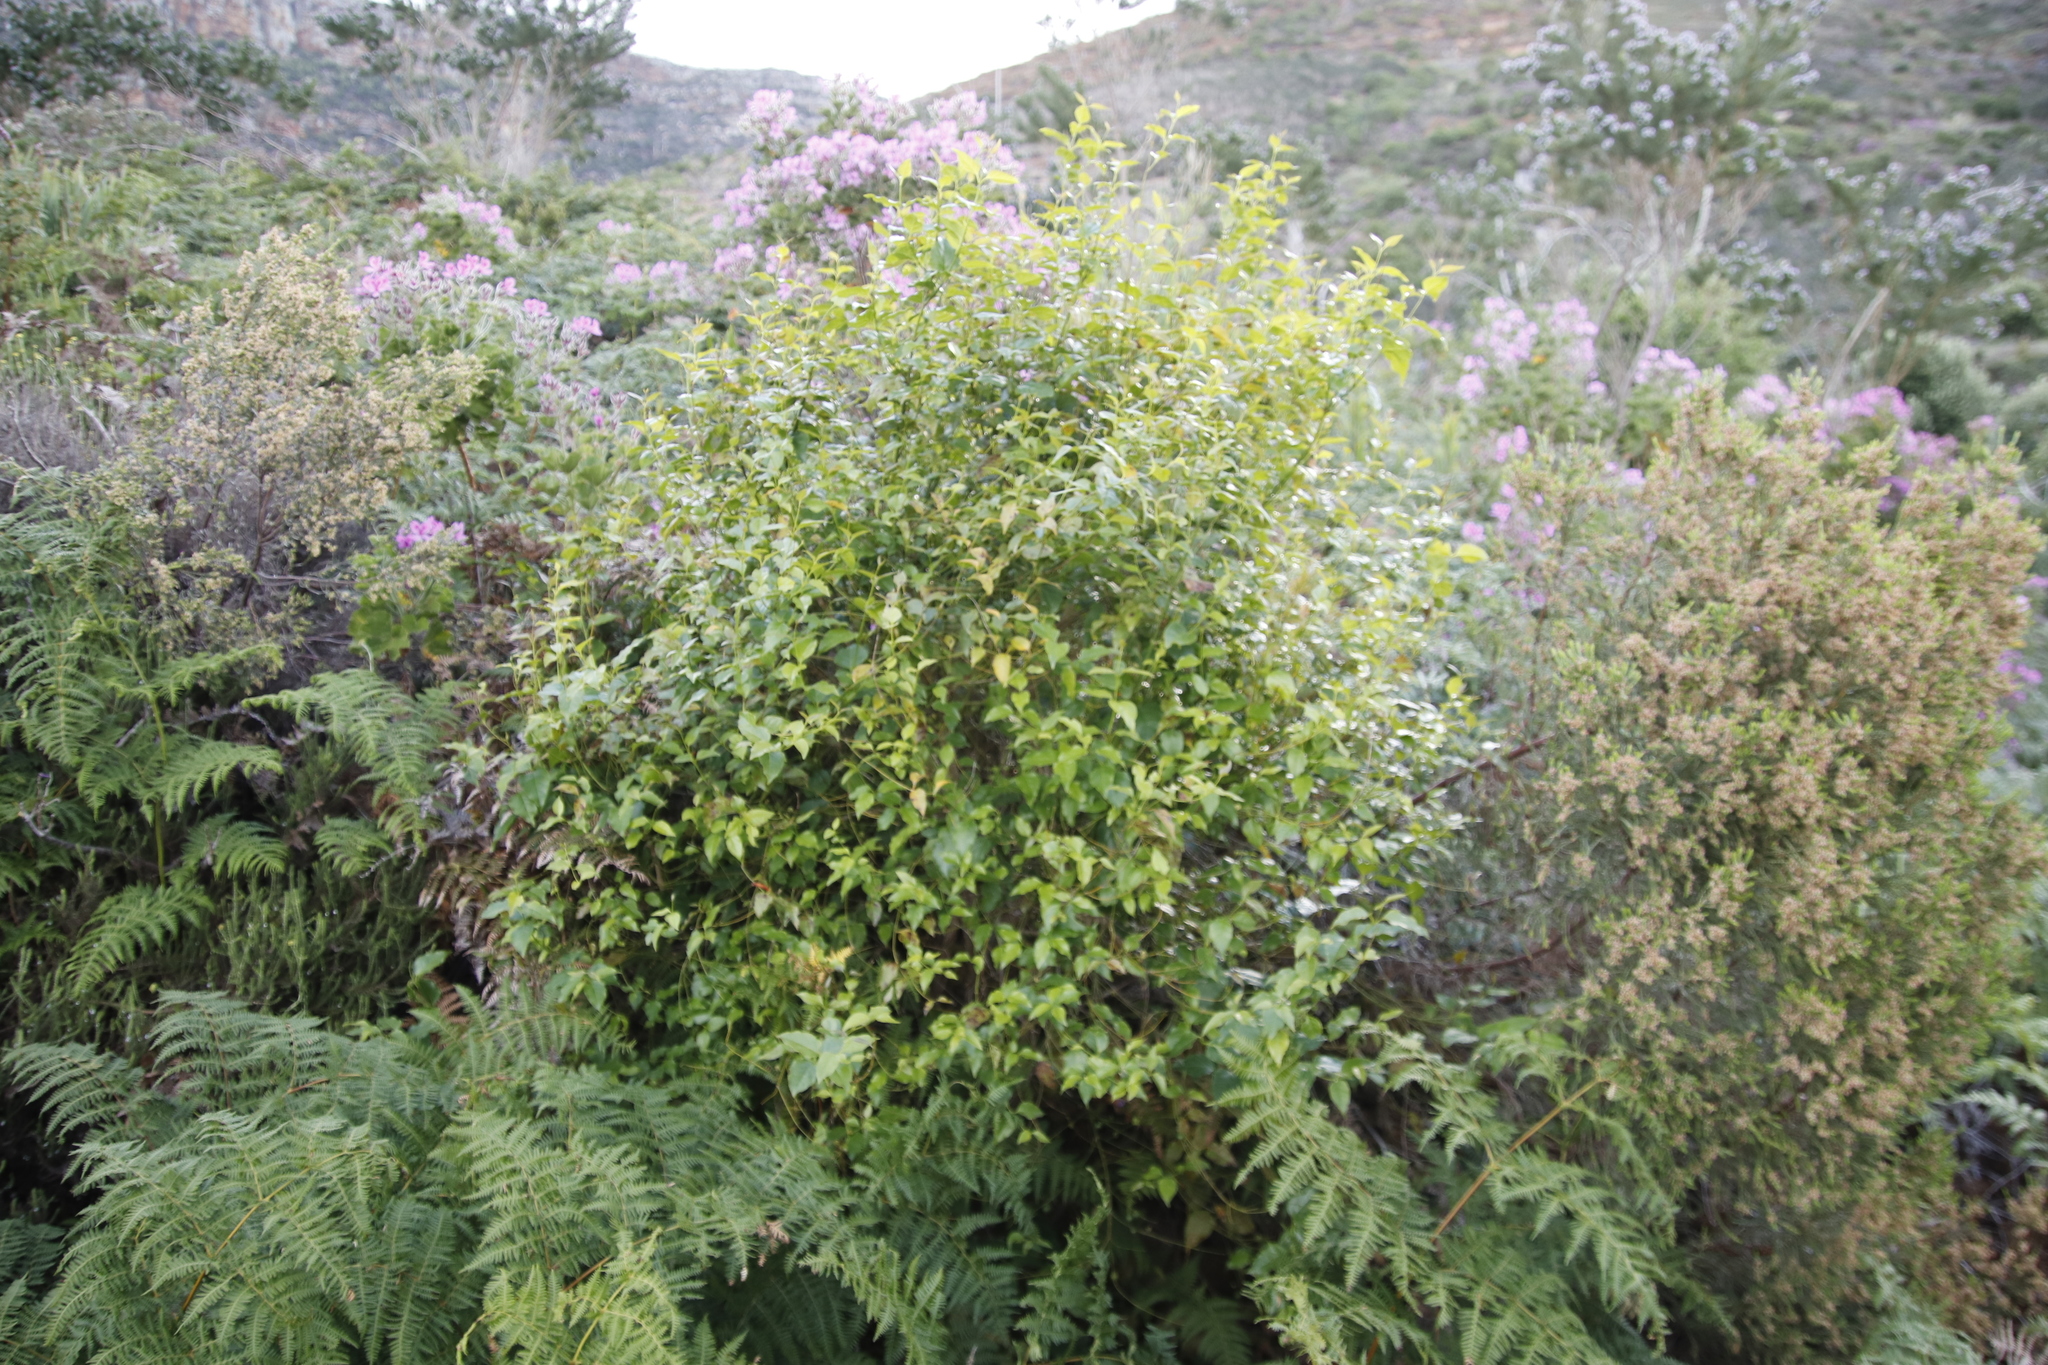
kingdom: Plantae
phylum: Tracheophyta
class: Magnoliopsida
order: Lamiales
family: Stilbaceae
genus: Halleria
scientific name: Halleria lucida
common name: Tree fuschia
